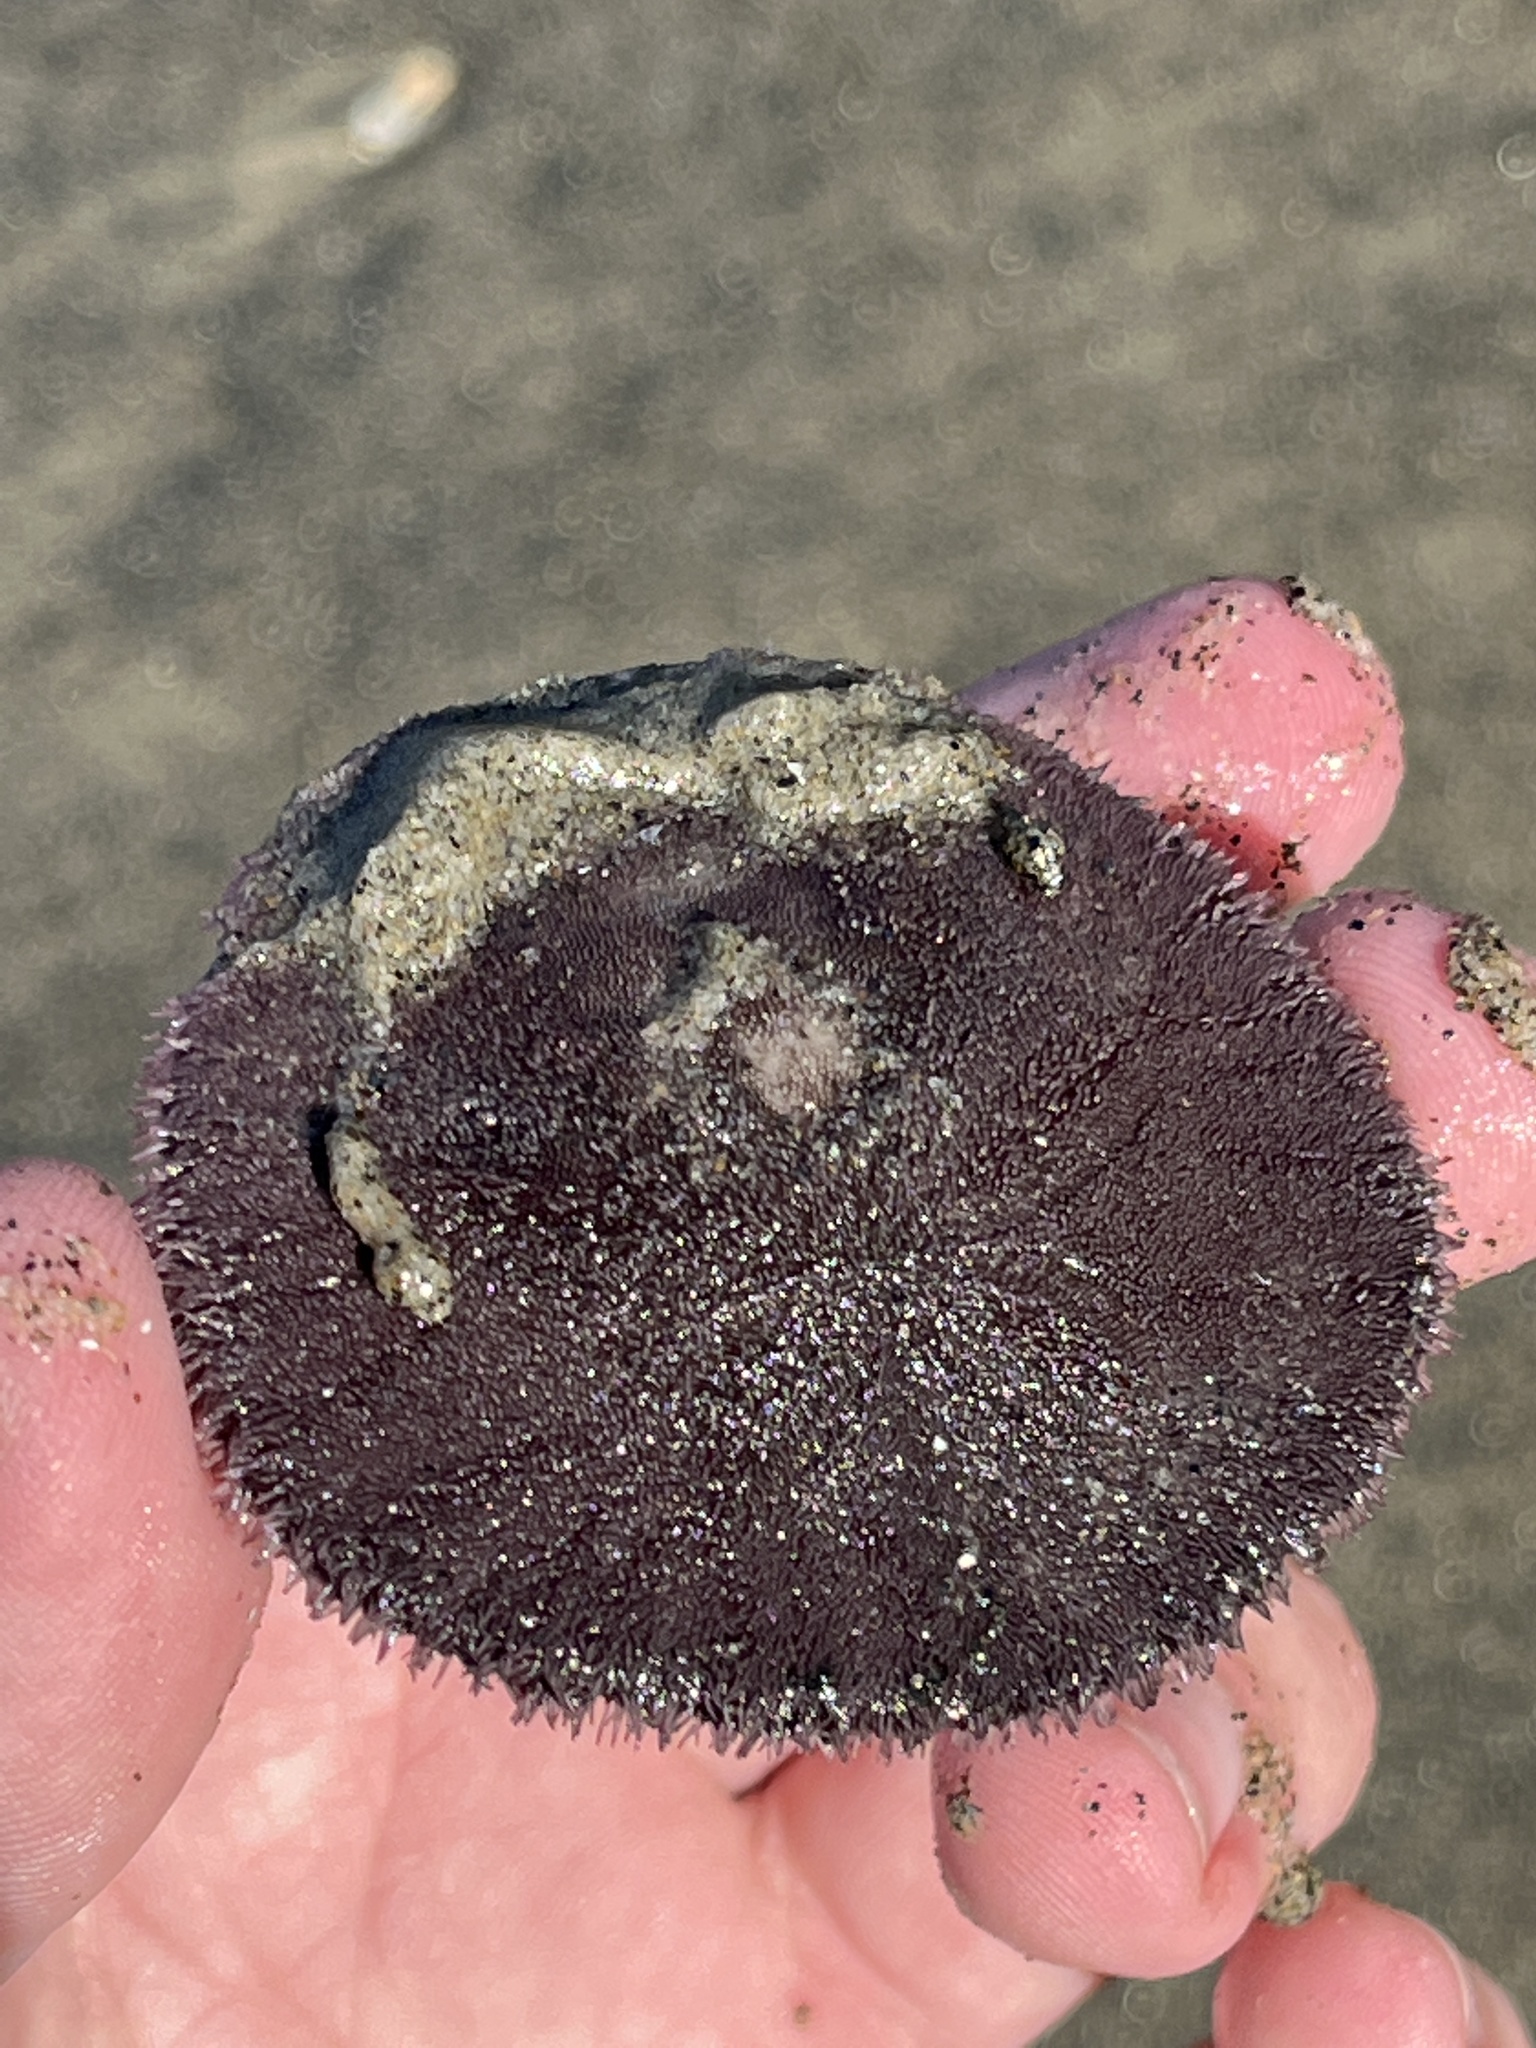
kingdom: Animalia
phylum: Echinodermata
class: Echinoidea
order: Echinolampadacea
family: Dendrasteridae
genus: Dendraster
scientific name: Dendraster excentricus
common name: Eccentric sand dollar sea urchin
